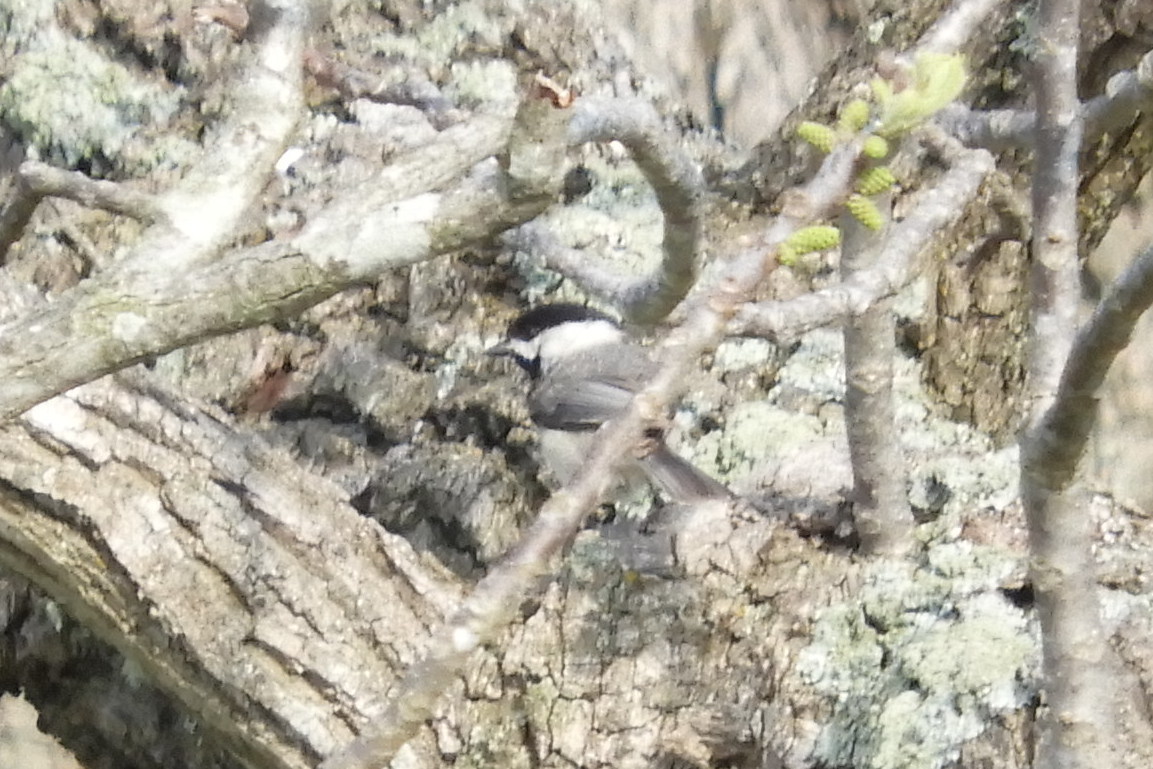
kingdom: Animalia
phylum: Chordata
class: Aves
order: Passeriformes
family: Paridae
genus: Poecile
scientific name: Poecile carolinensis
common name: Carolina chickadee
